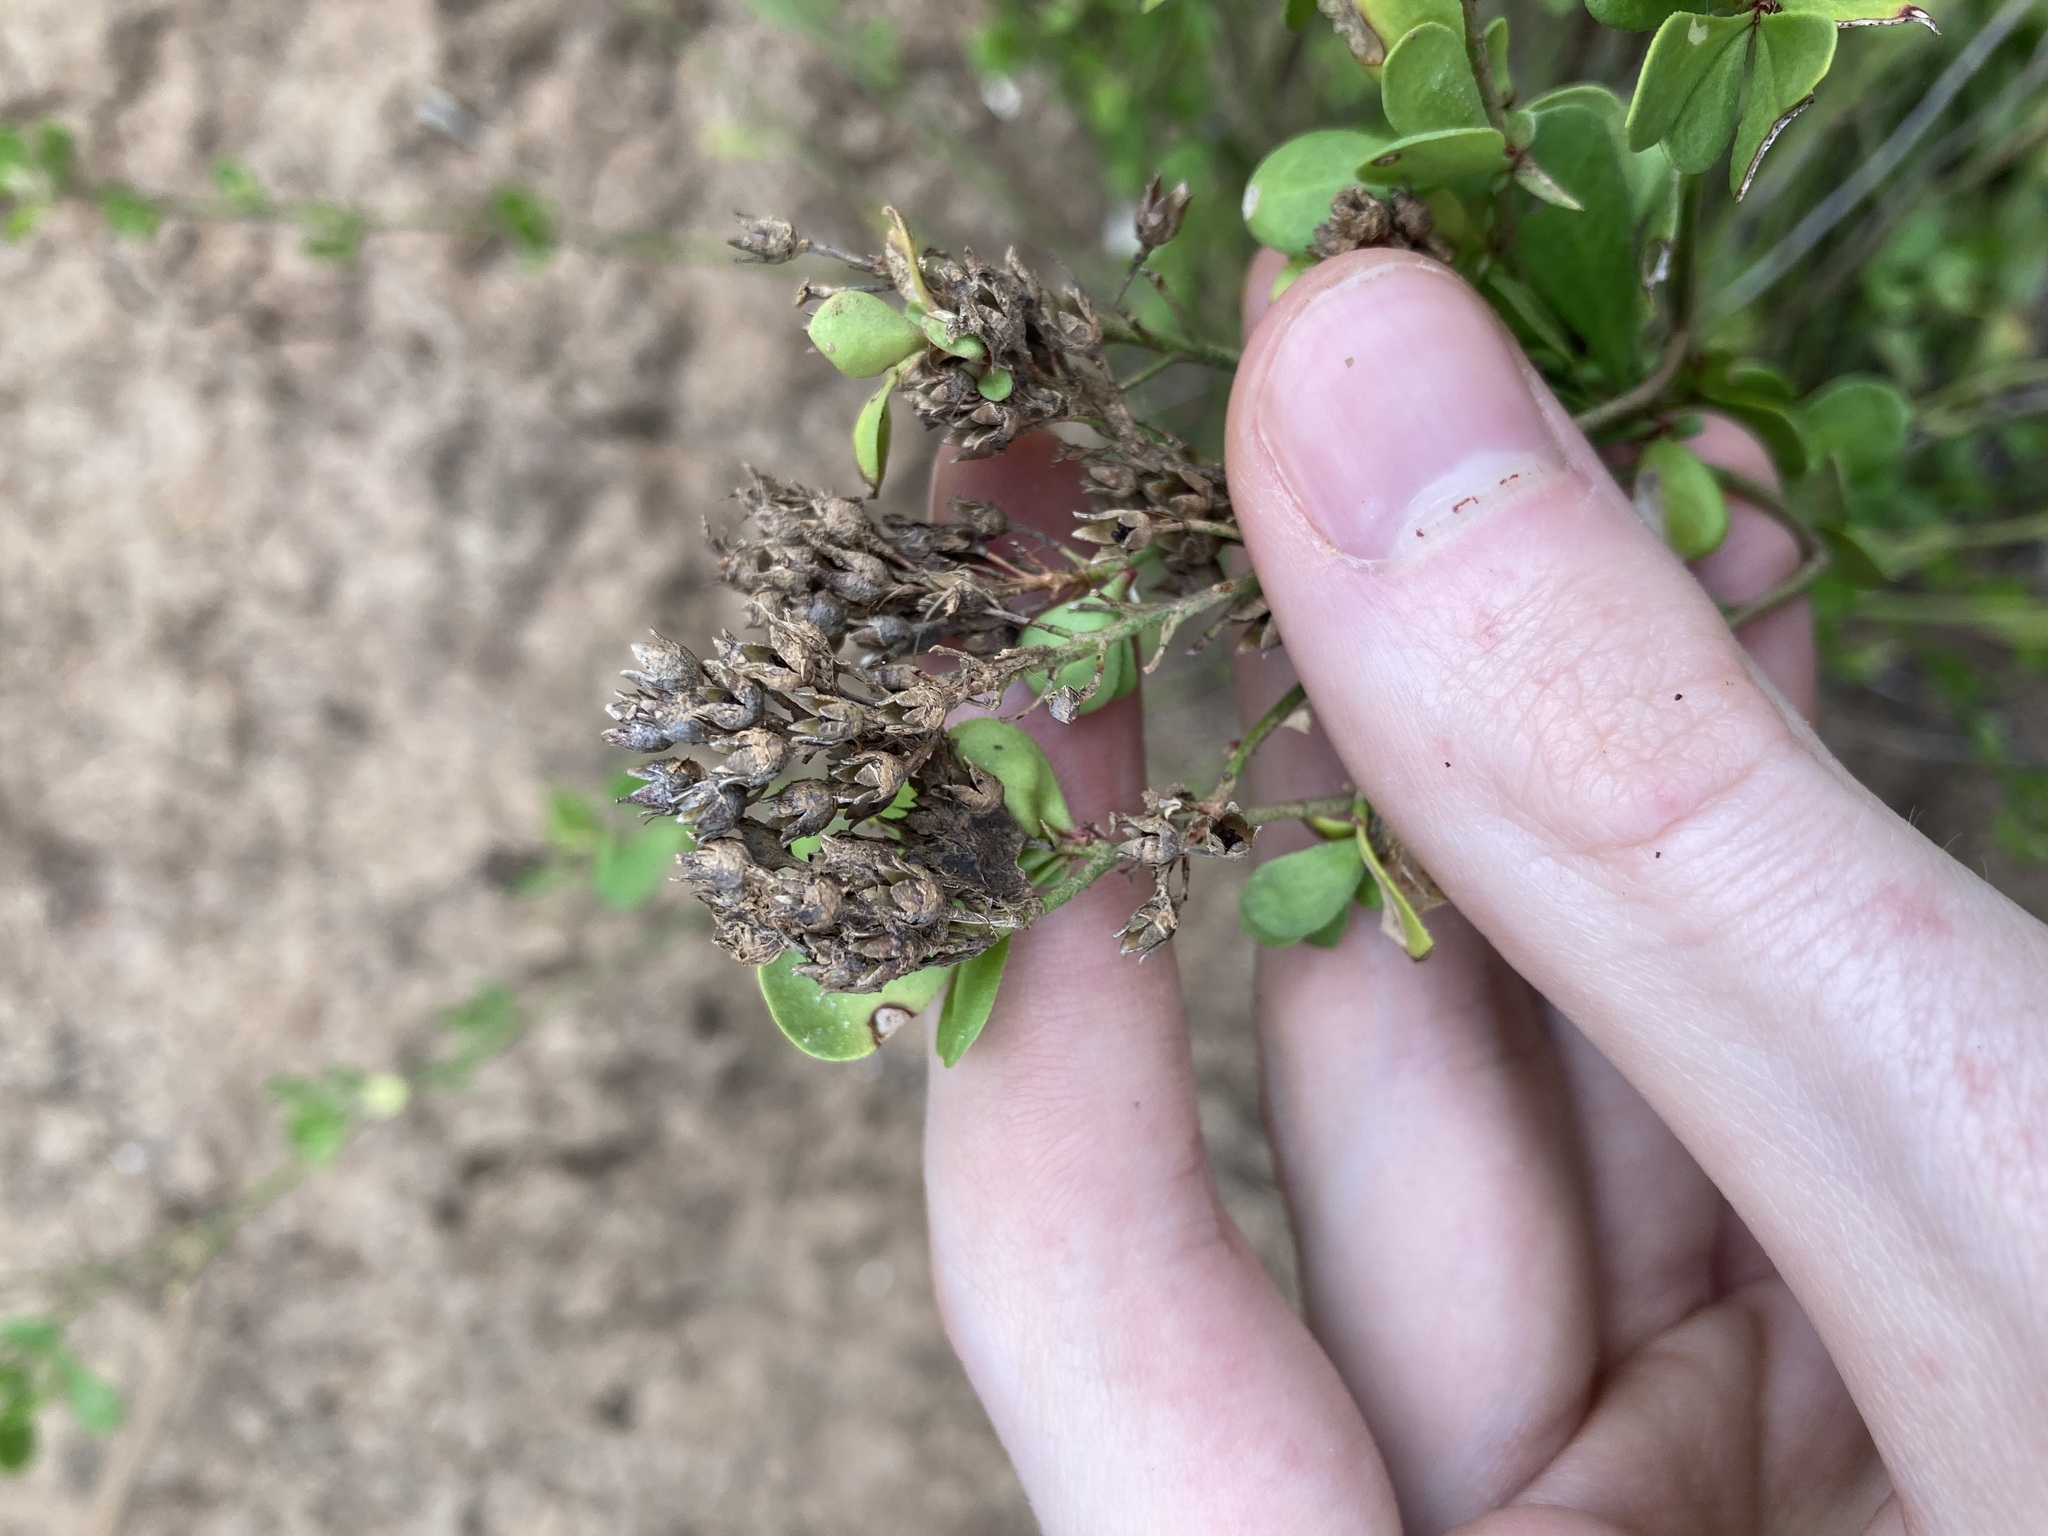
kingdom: Plantae
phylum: Tracheophyta
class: Magnoliopsida
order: Ericales
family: Primulaceae
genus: Samolus
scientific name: Samolus repens
